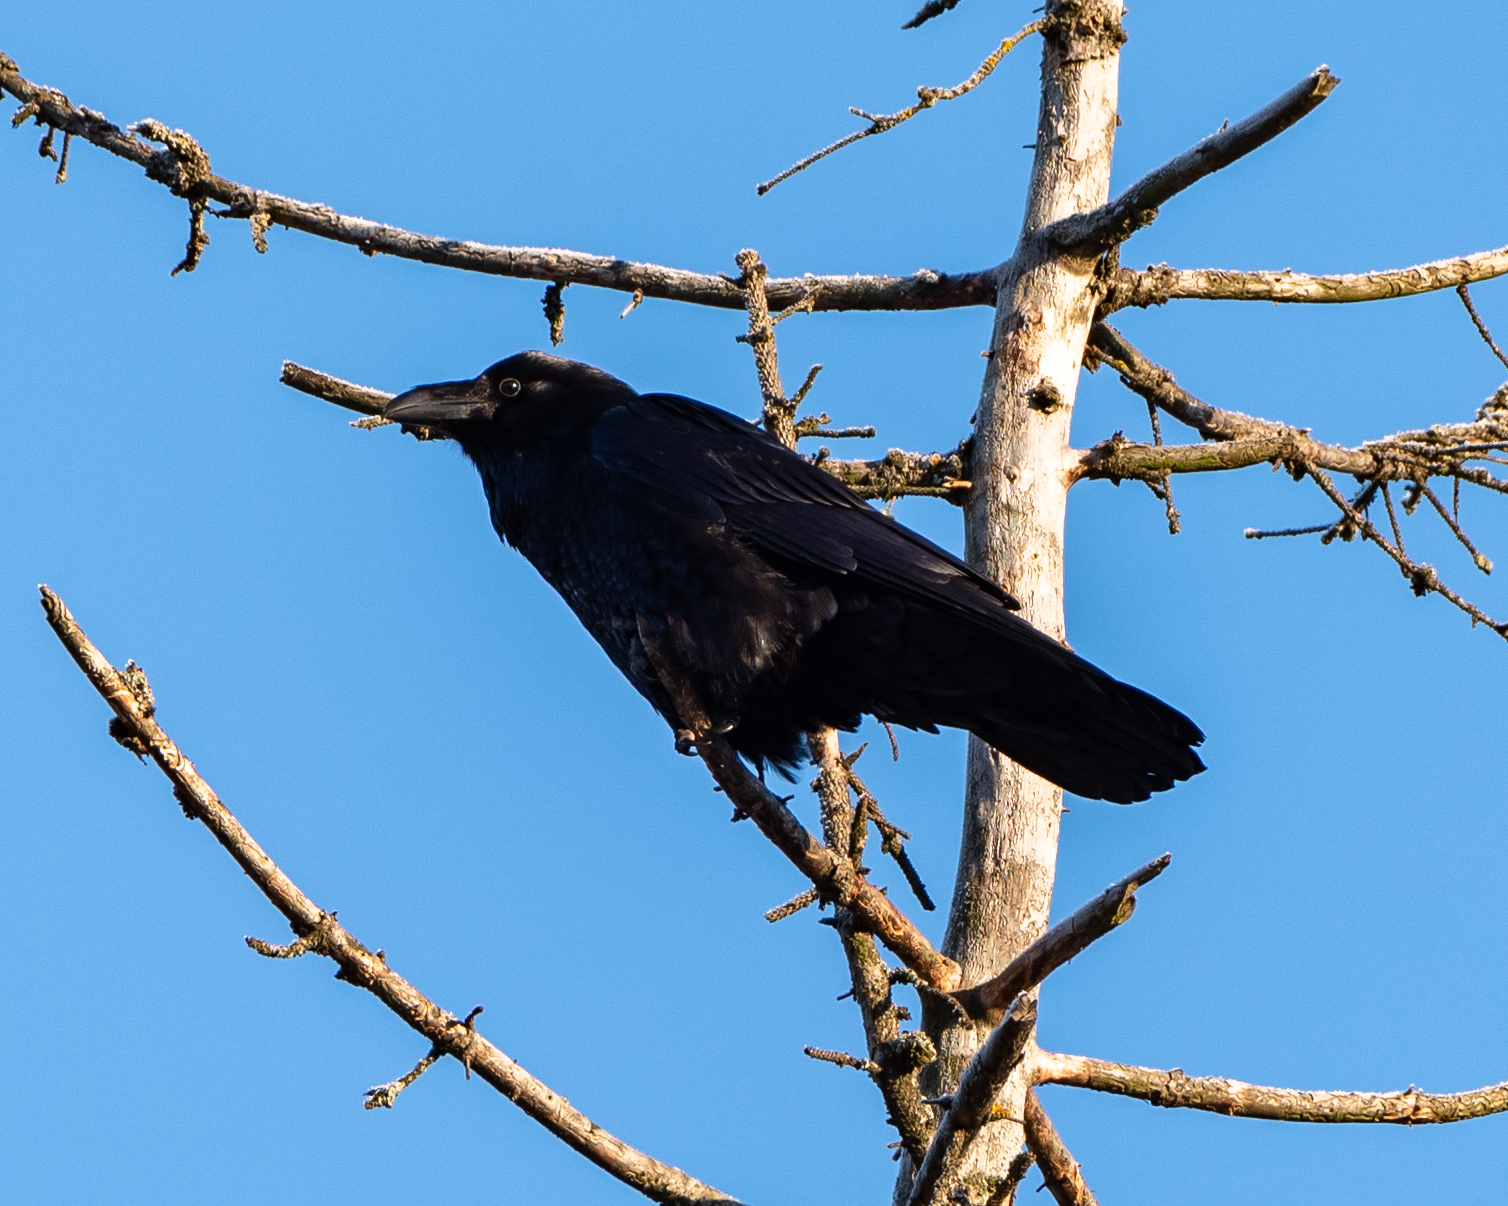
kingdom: Animalia
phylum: Chordata
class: Aves
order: Passeriformes
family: Corvidae
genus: Corvus
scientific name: Corvus corax
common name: Common raven
